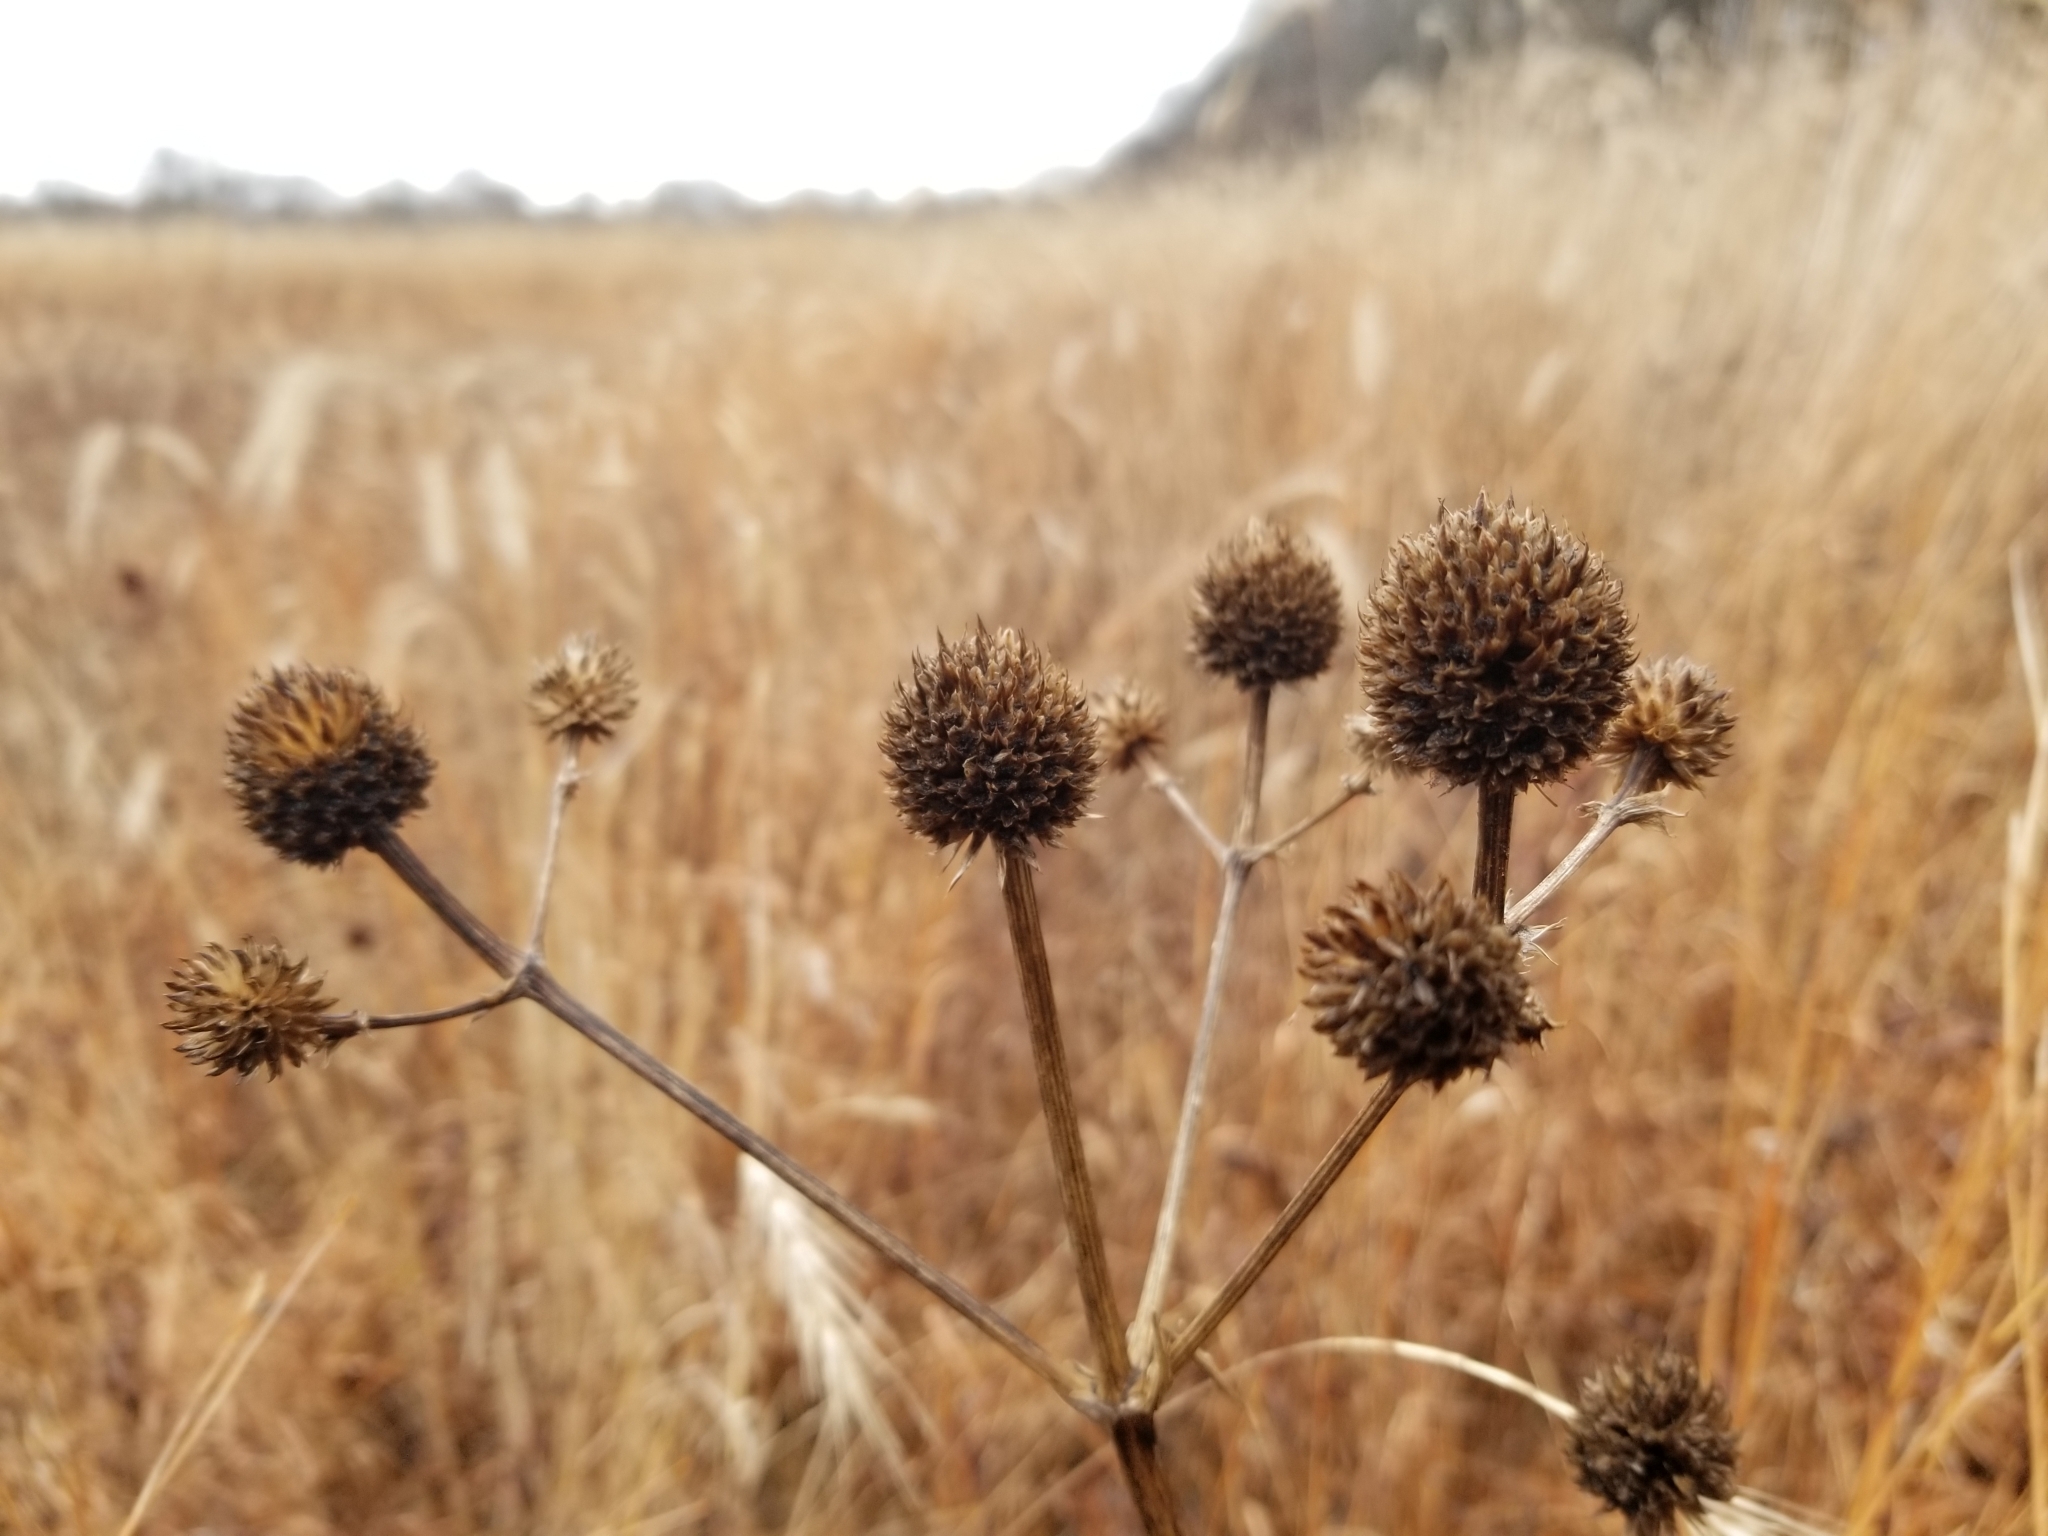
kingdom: Plantae
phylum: Tracheophyta
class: Magnoliopsida
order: Apiales
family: Apiaceae
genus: Eryngium
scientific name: Eryngium yuccifolium
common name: Button eryngo
